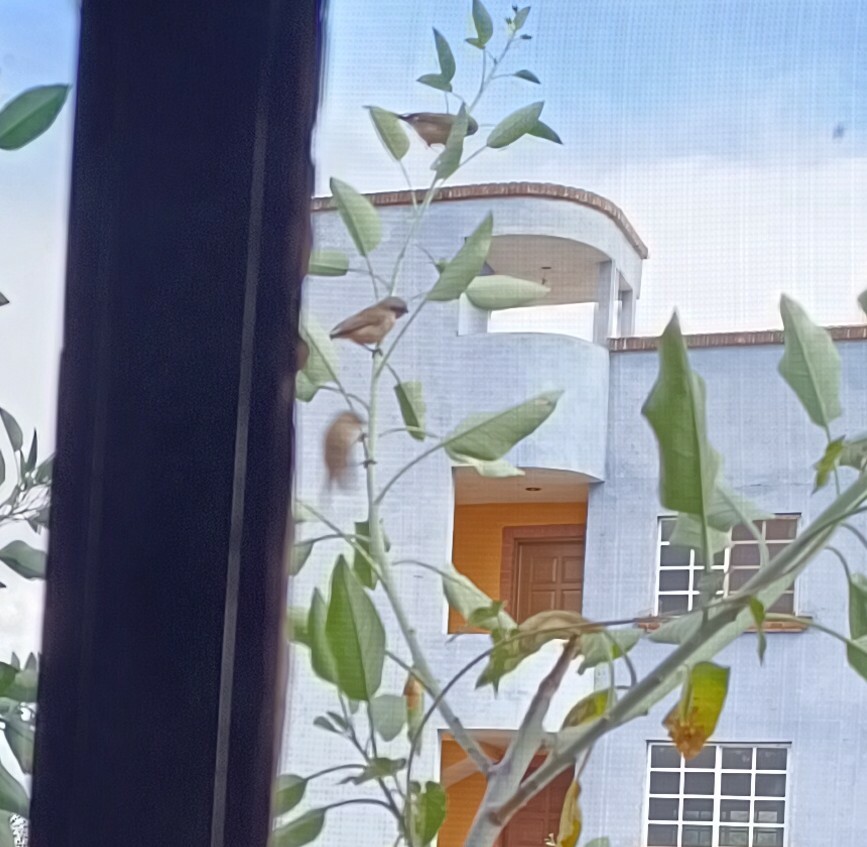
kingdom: Animalia
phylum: Chordata
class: Aves
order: Passeriformes
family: Aegithalidae
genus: Psaltriparus
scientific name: Psaltriparus minimus
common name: American bushtit
